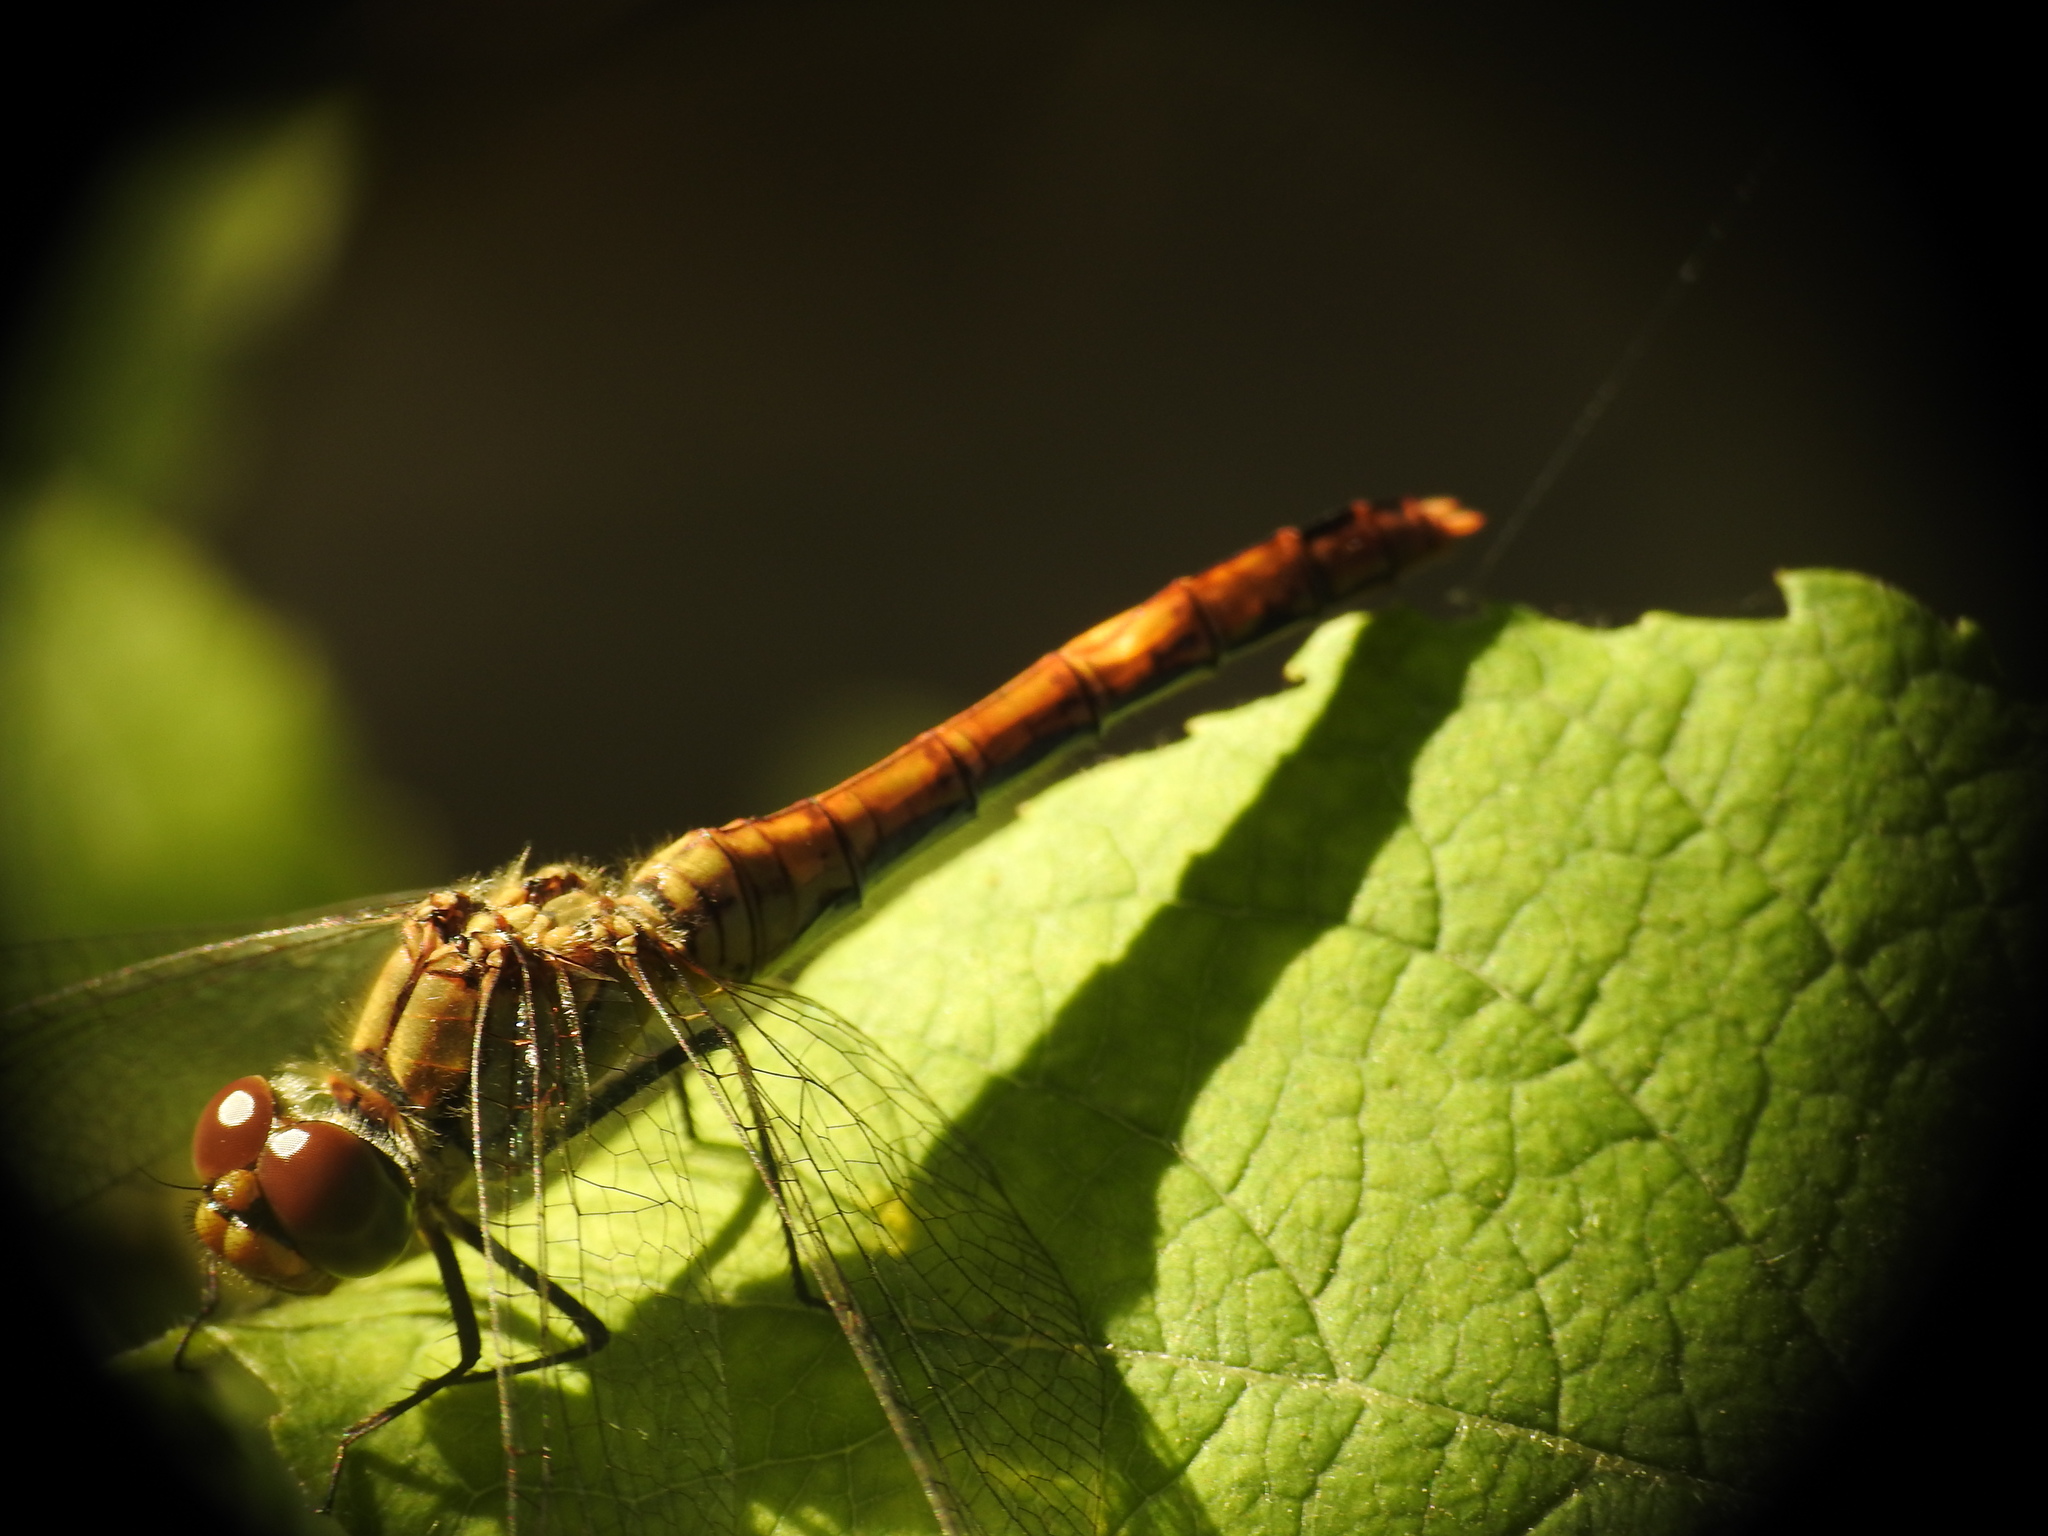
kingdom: Animalia
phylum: Arthropoda
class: Insecta
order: Odonata
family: Libellulidae
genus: Sympetrum
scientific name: Sympetrum sanguineum
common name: Ruddy darter
